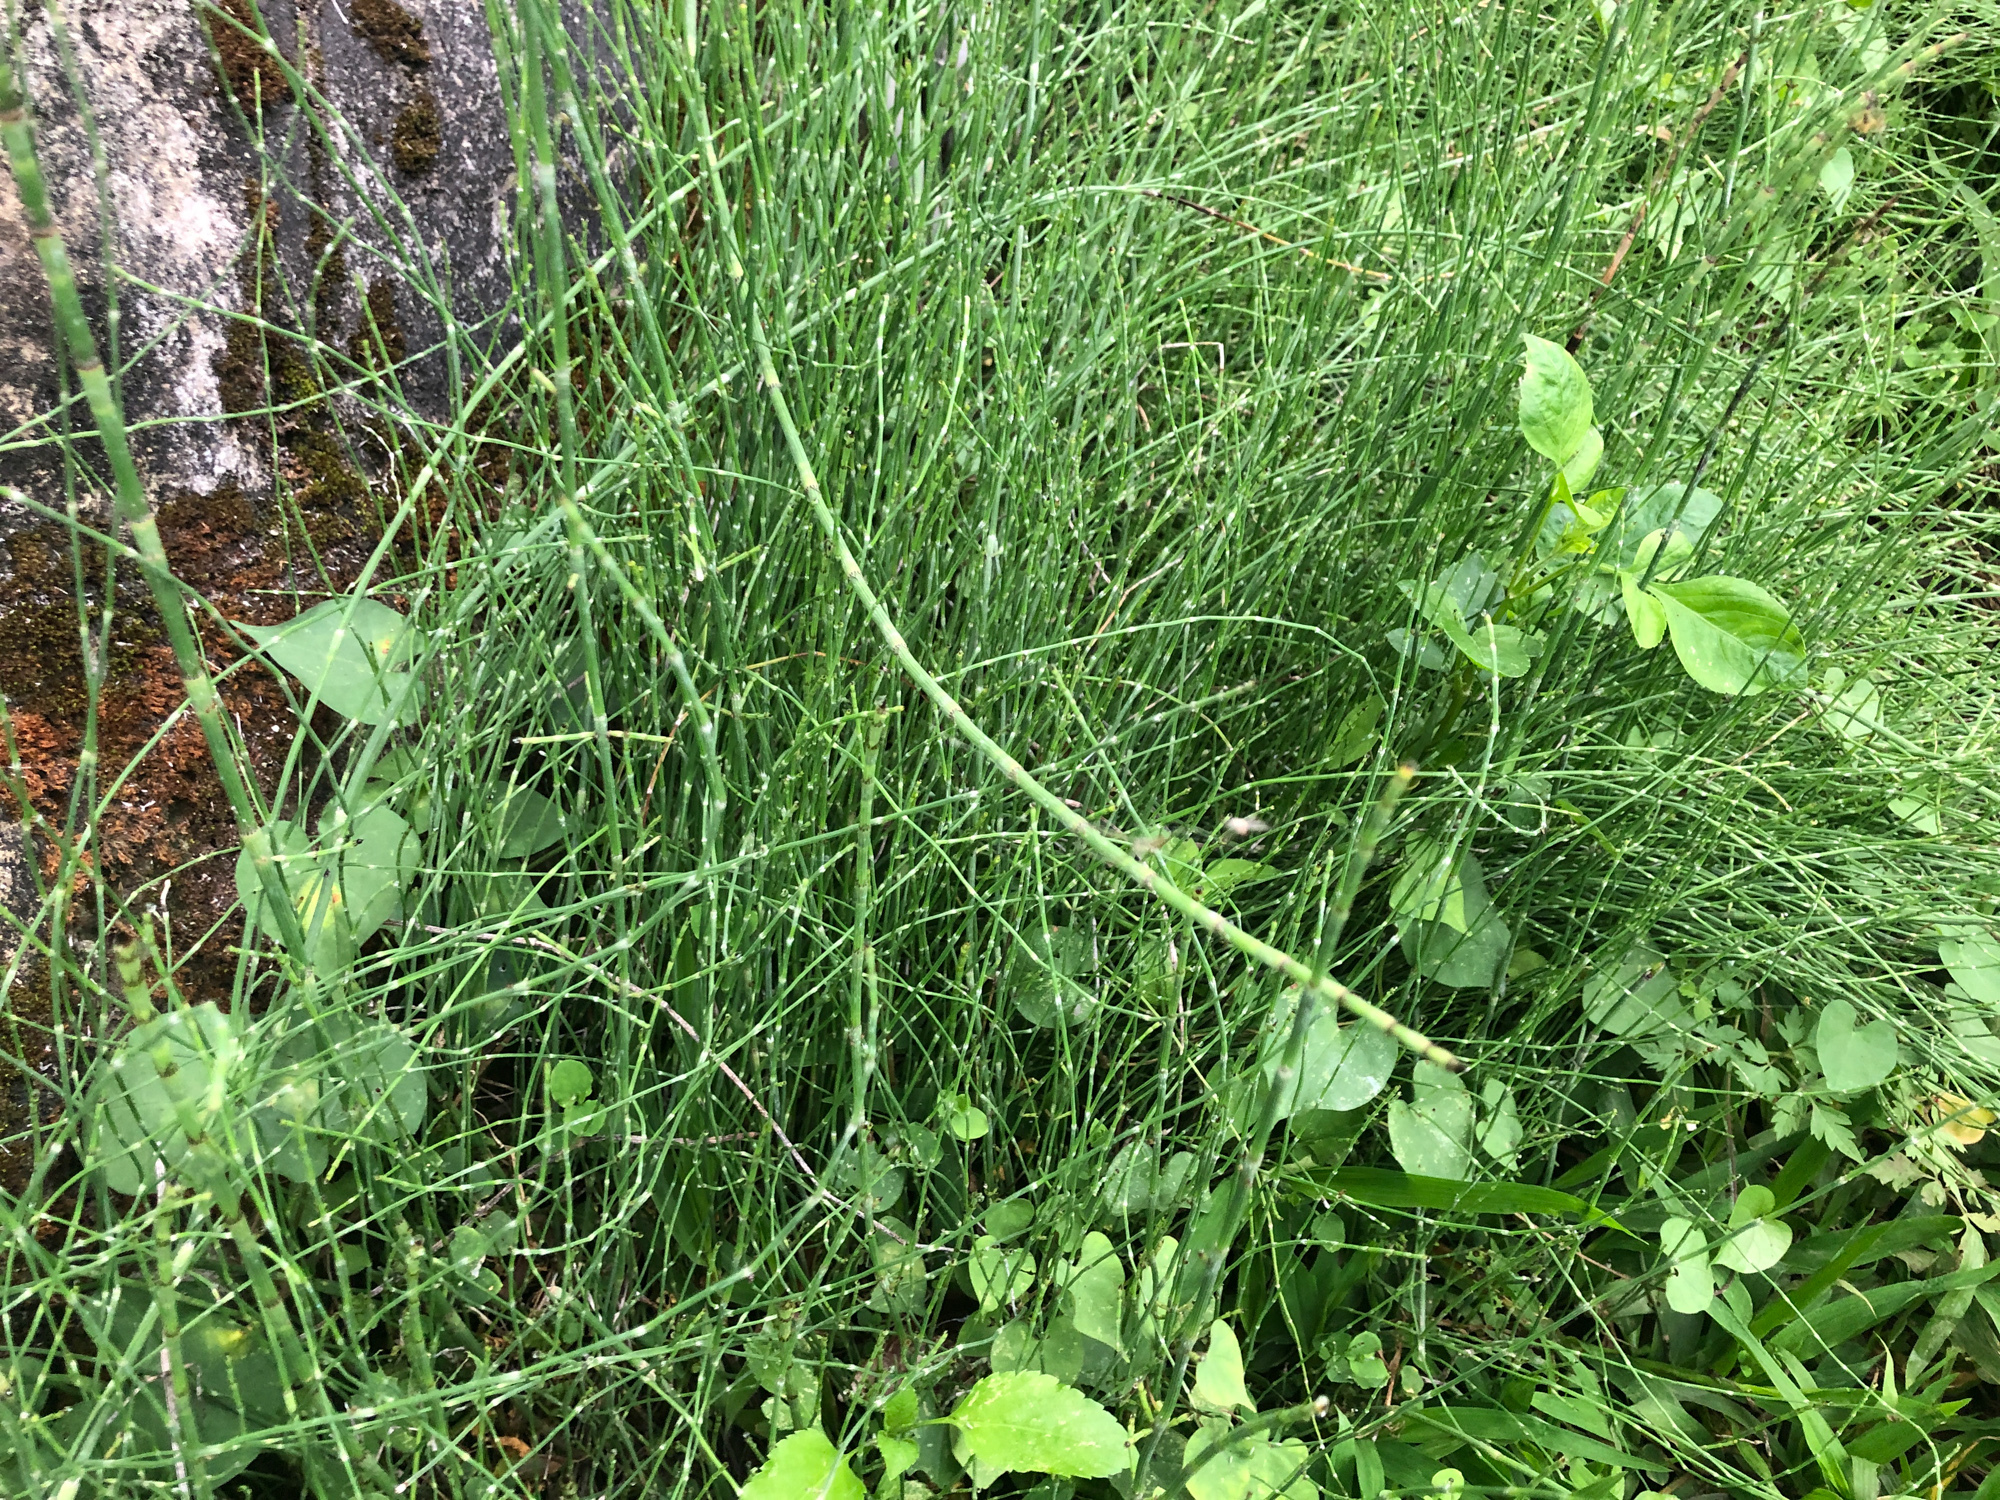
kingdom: Plantae
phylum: Tracheophyta
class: Polypodiopsida
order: Equisetales
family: Equisetaceae
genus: Equisetum
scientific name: Equisetum ramosissimum
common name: Branched horsetail
